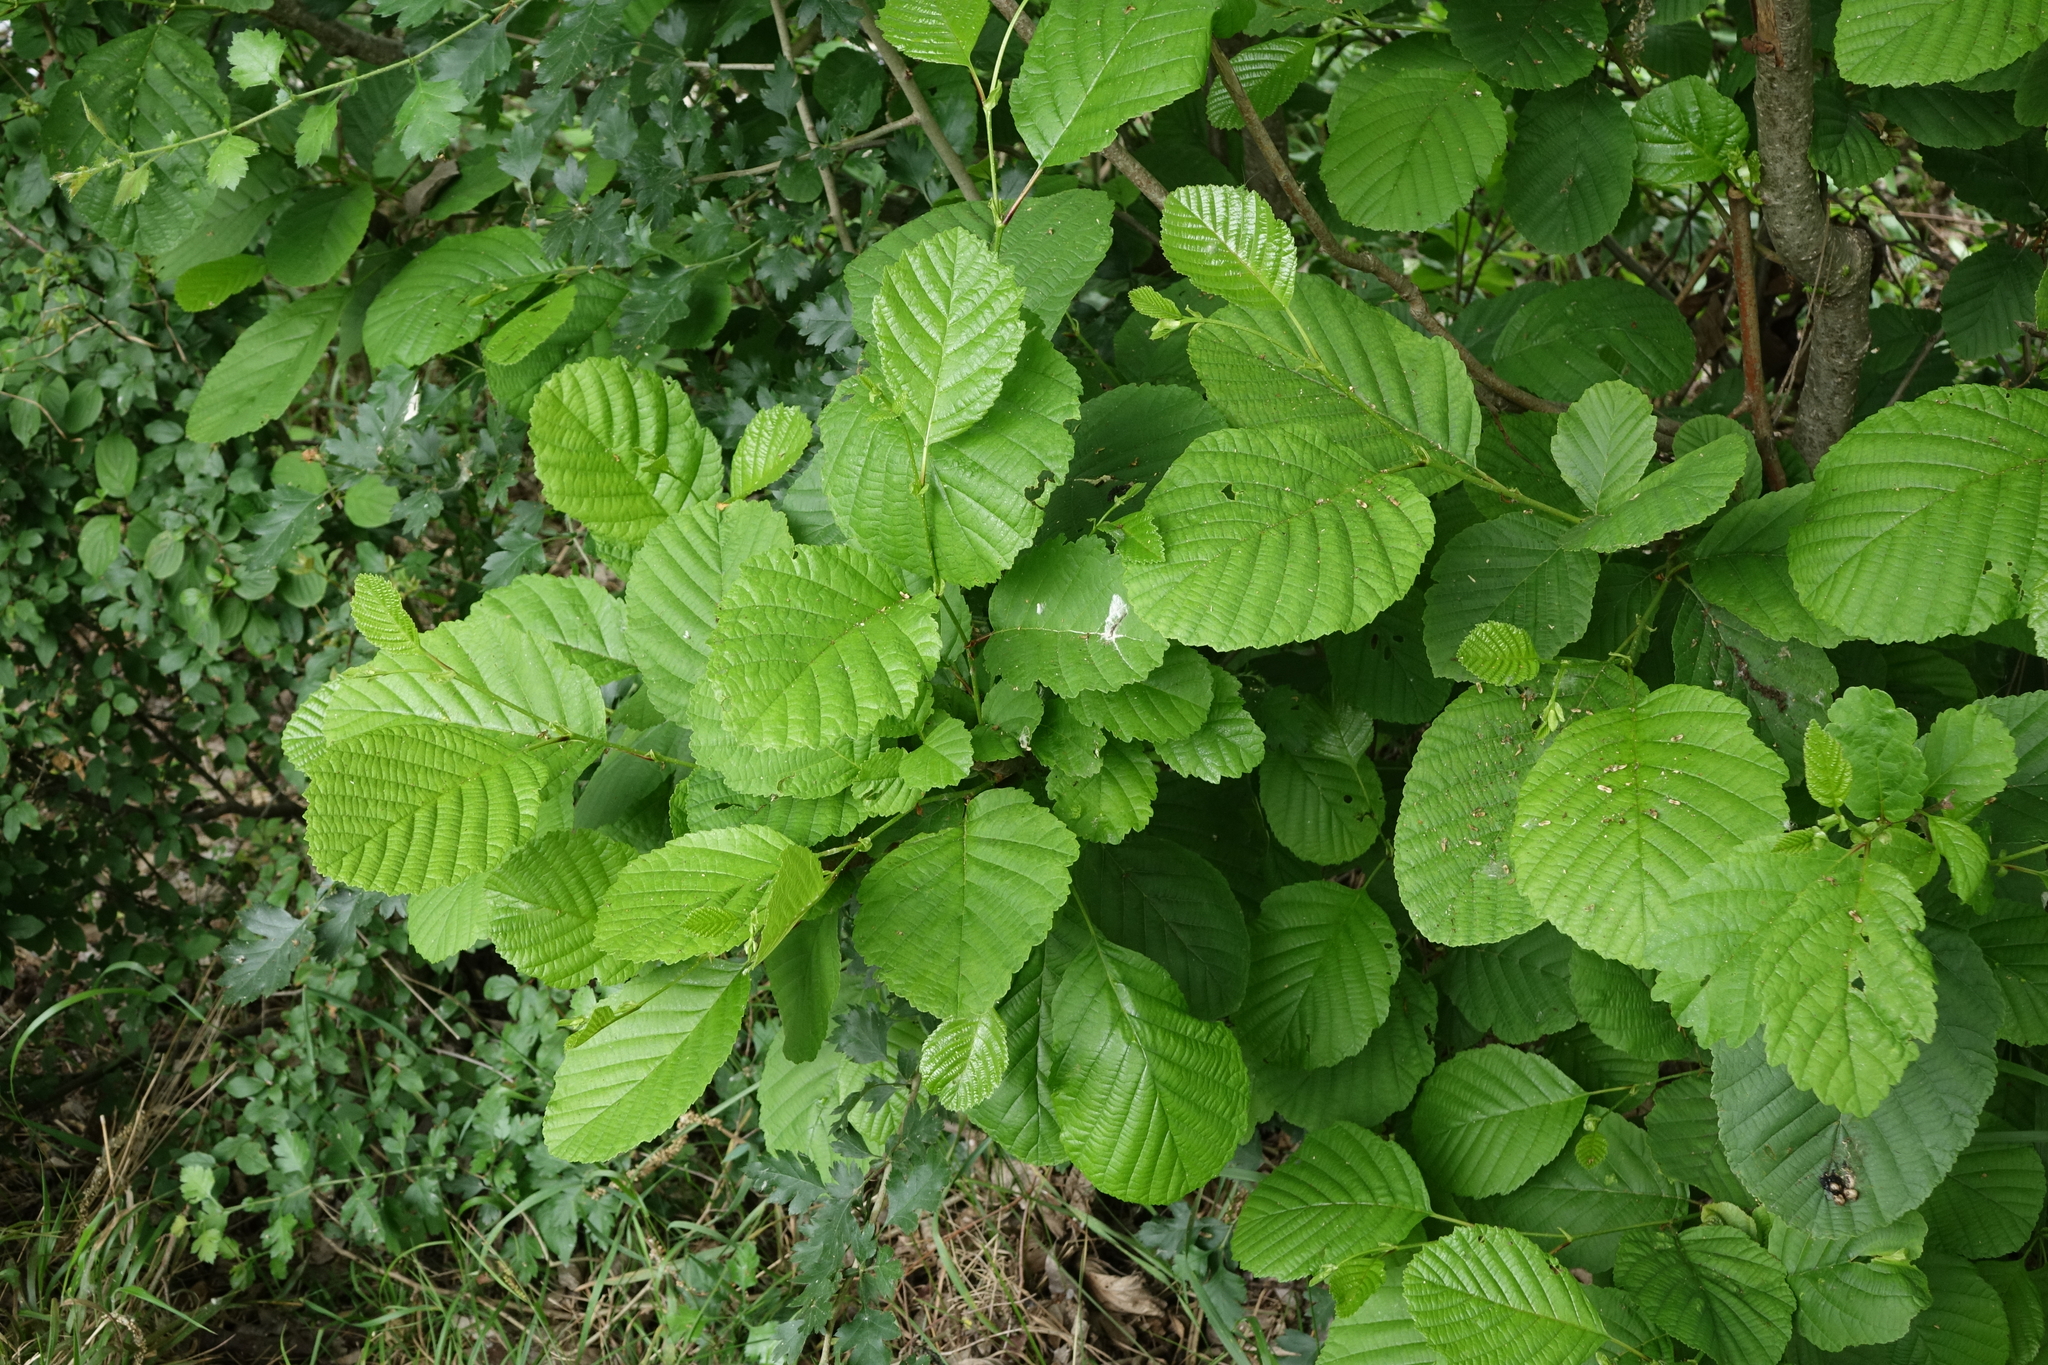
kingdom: Plantae
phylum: Tracheophyta
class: Magnoliopsida
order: Fagales
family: Betulaceae
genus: Alnus
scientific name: Alnus glutinosa
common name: Black alder
